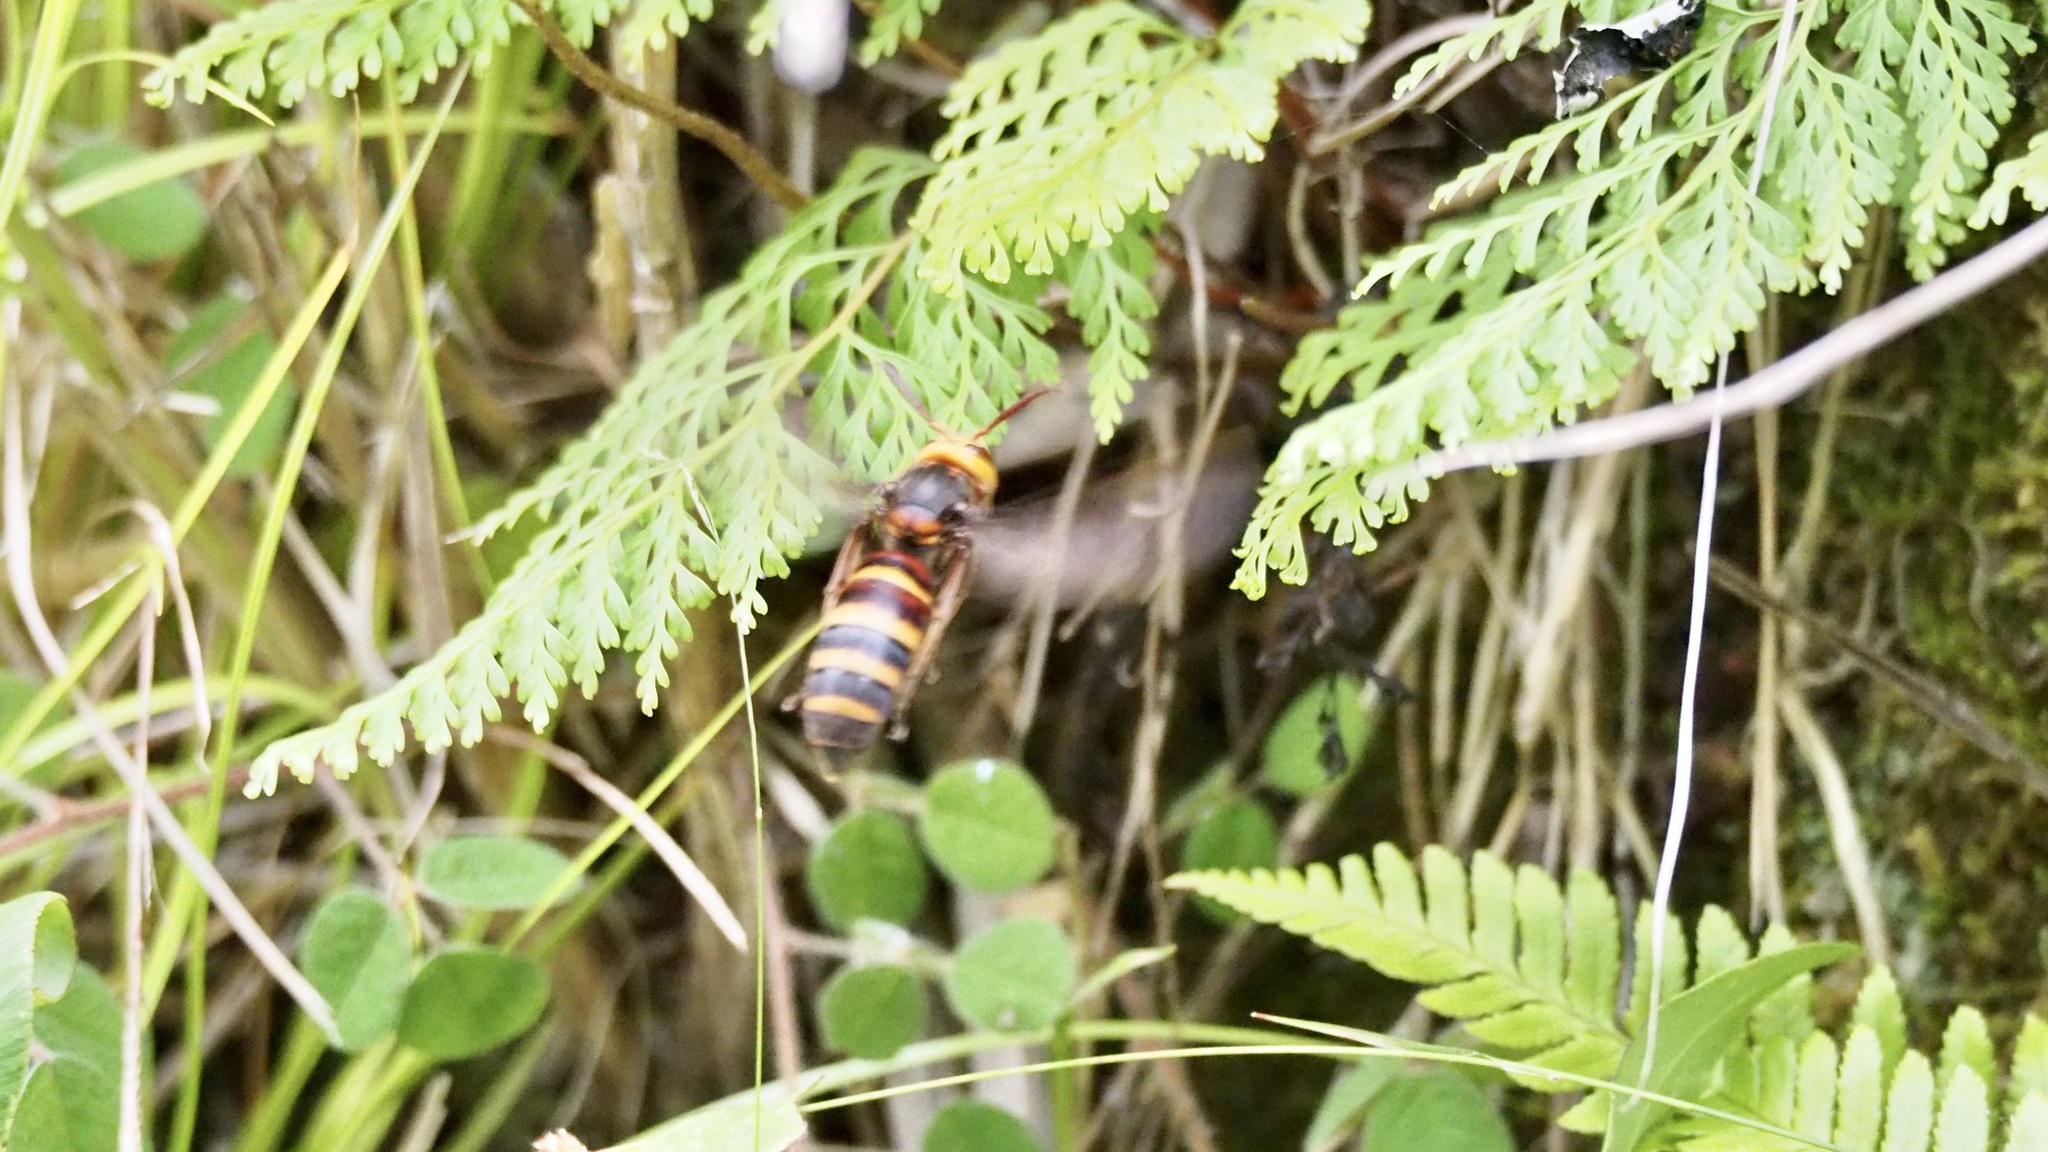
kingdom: Animalia
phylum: Arthropoda
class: Insecta
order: Hymenoptera
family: Vespidae
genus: Vespa
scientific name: Vespa ducalis
